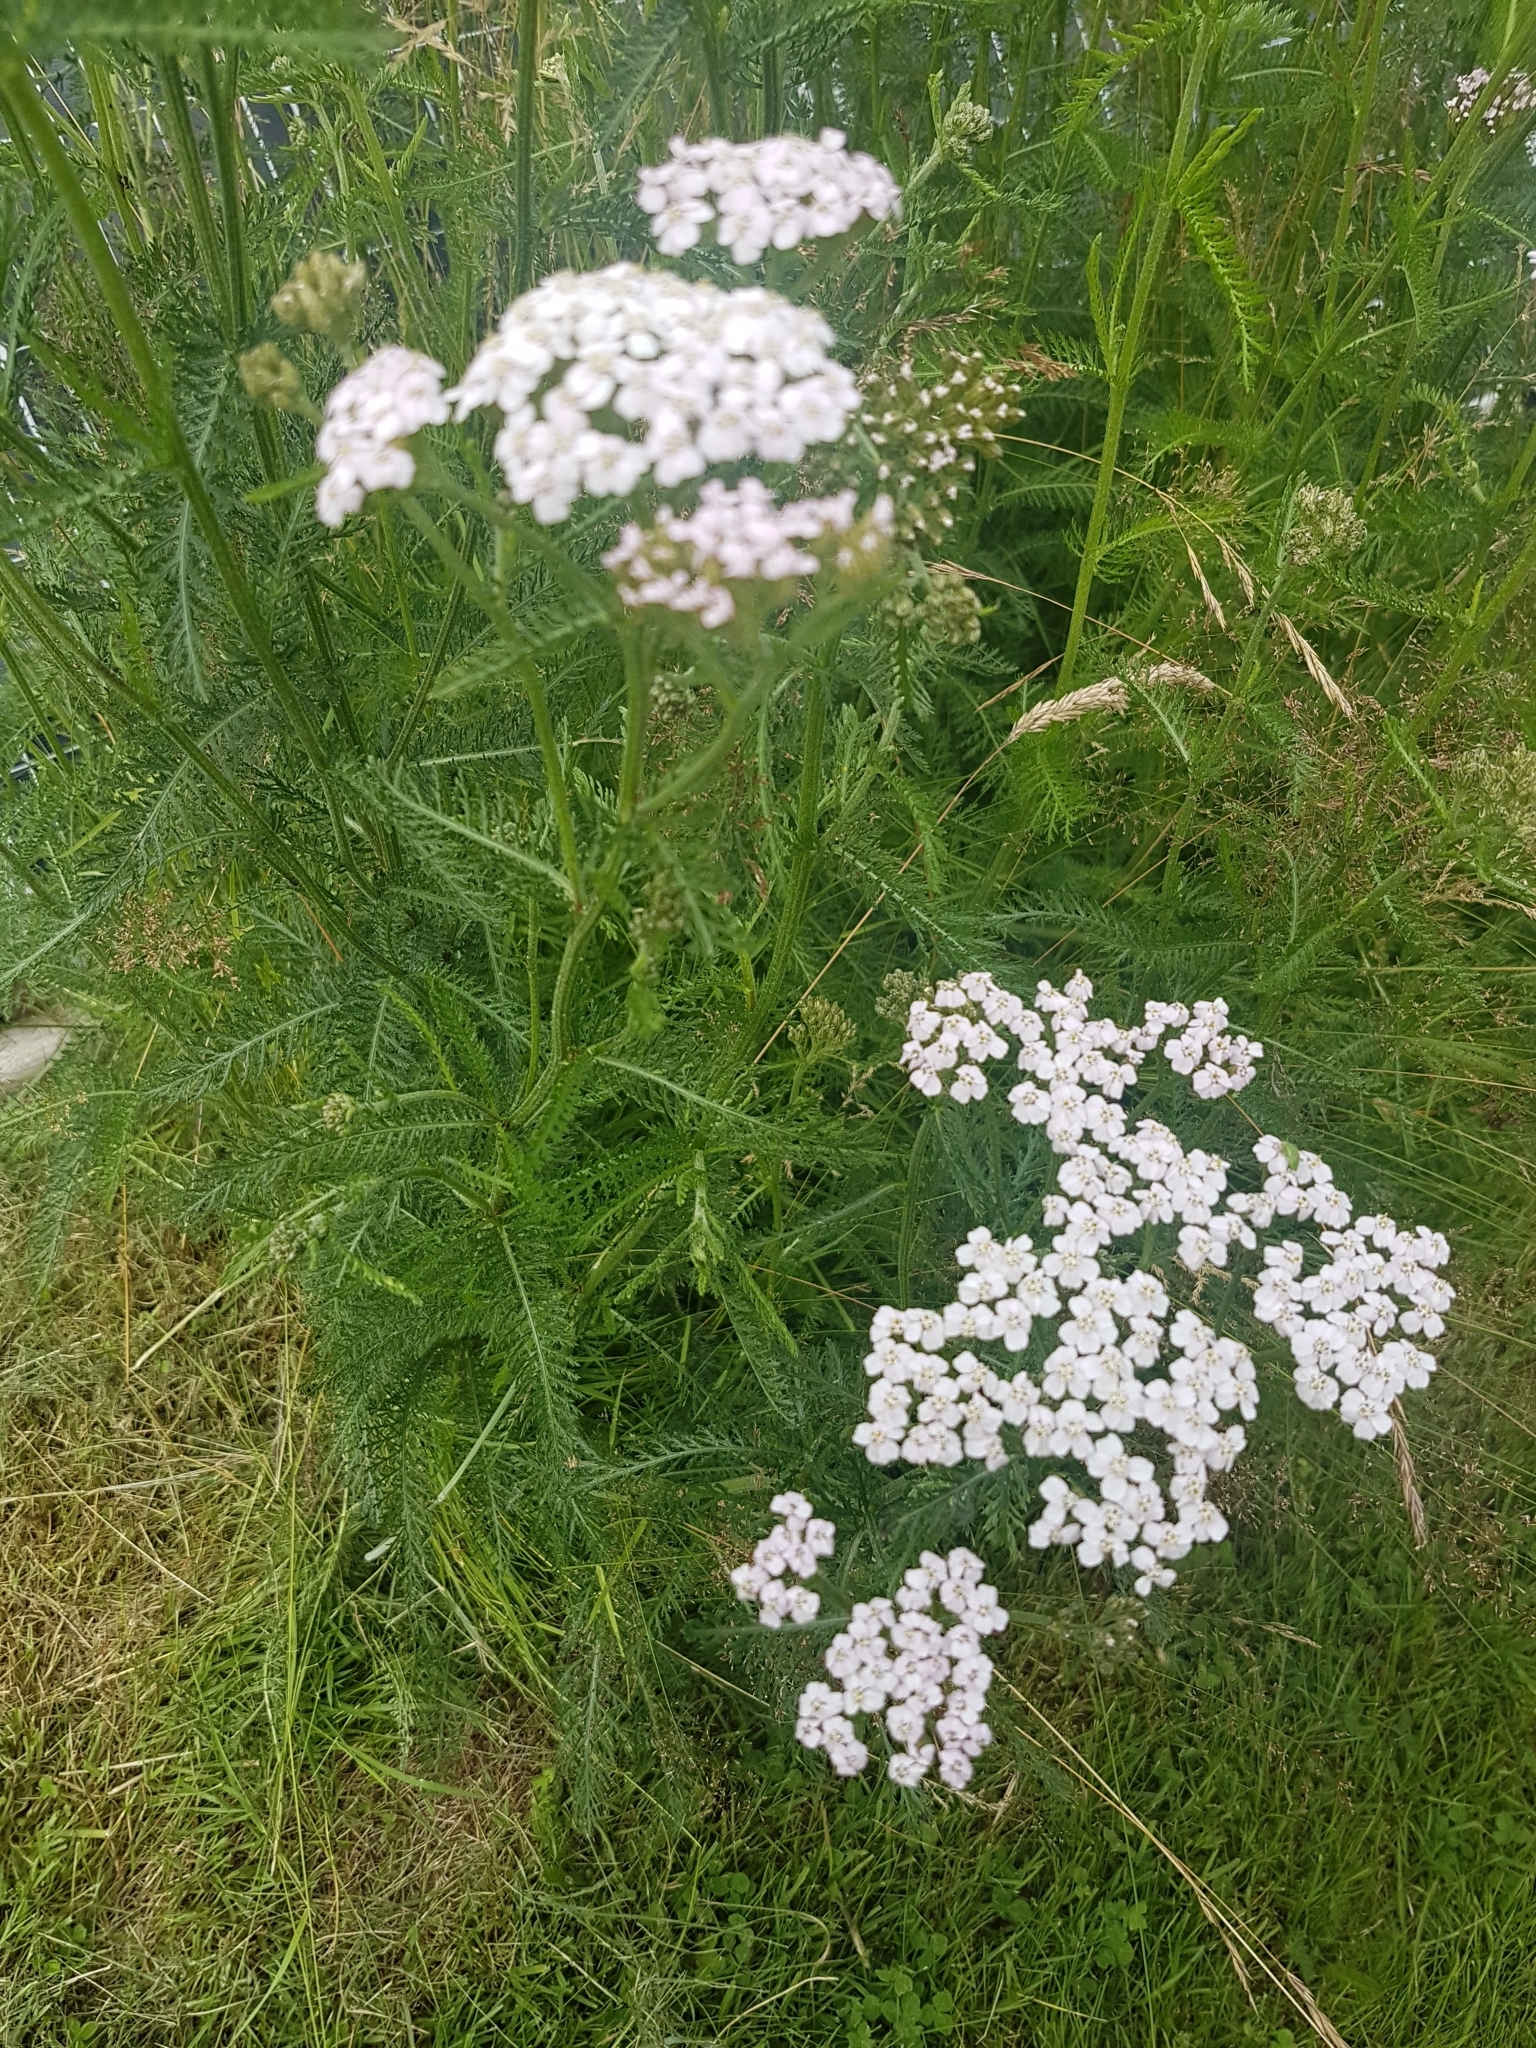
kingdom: Plantae
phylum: Tracheophyta
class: Magnoliopsida
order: Asterales
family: Asteraceae
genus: Achillea
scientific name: Achillea millefolium
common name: Yarrow
